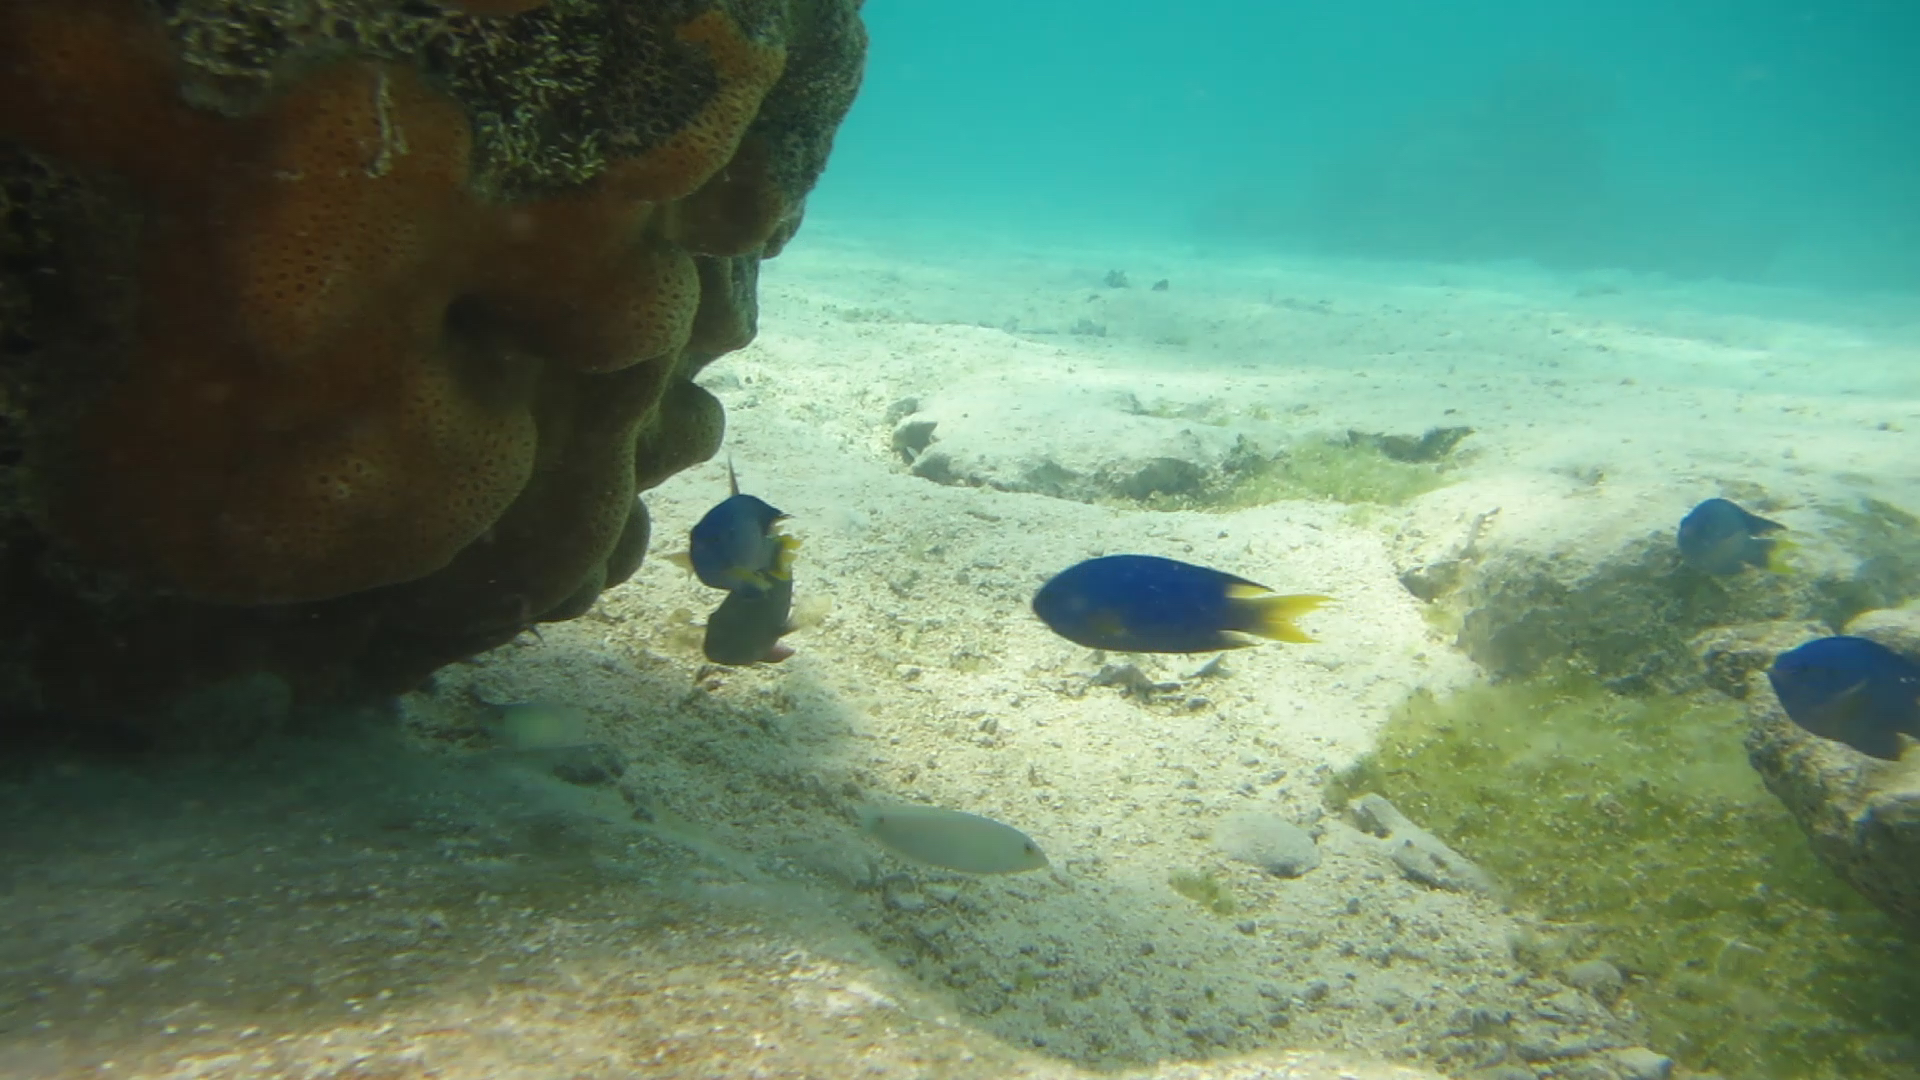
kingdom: Animalia
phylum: Chordata
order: Perciformes
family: Pomacentridae
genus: Pomacentrus
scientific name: Pomacentrus pavo
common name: Sapphire damsel
